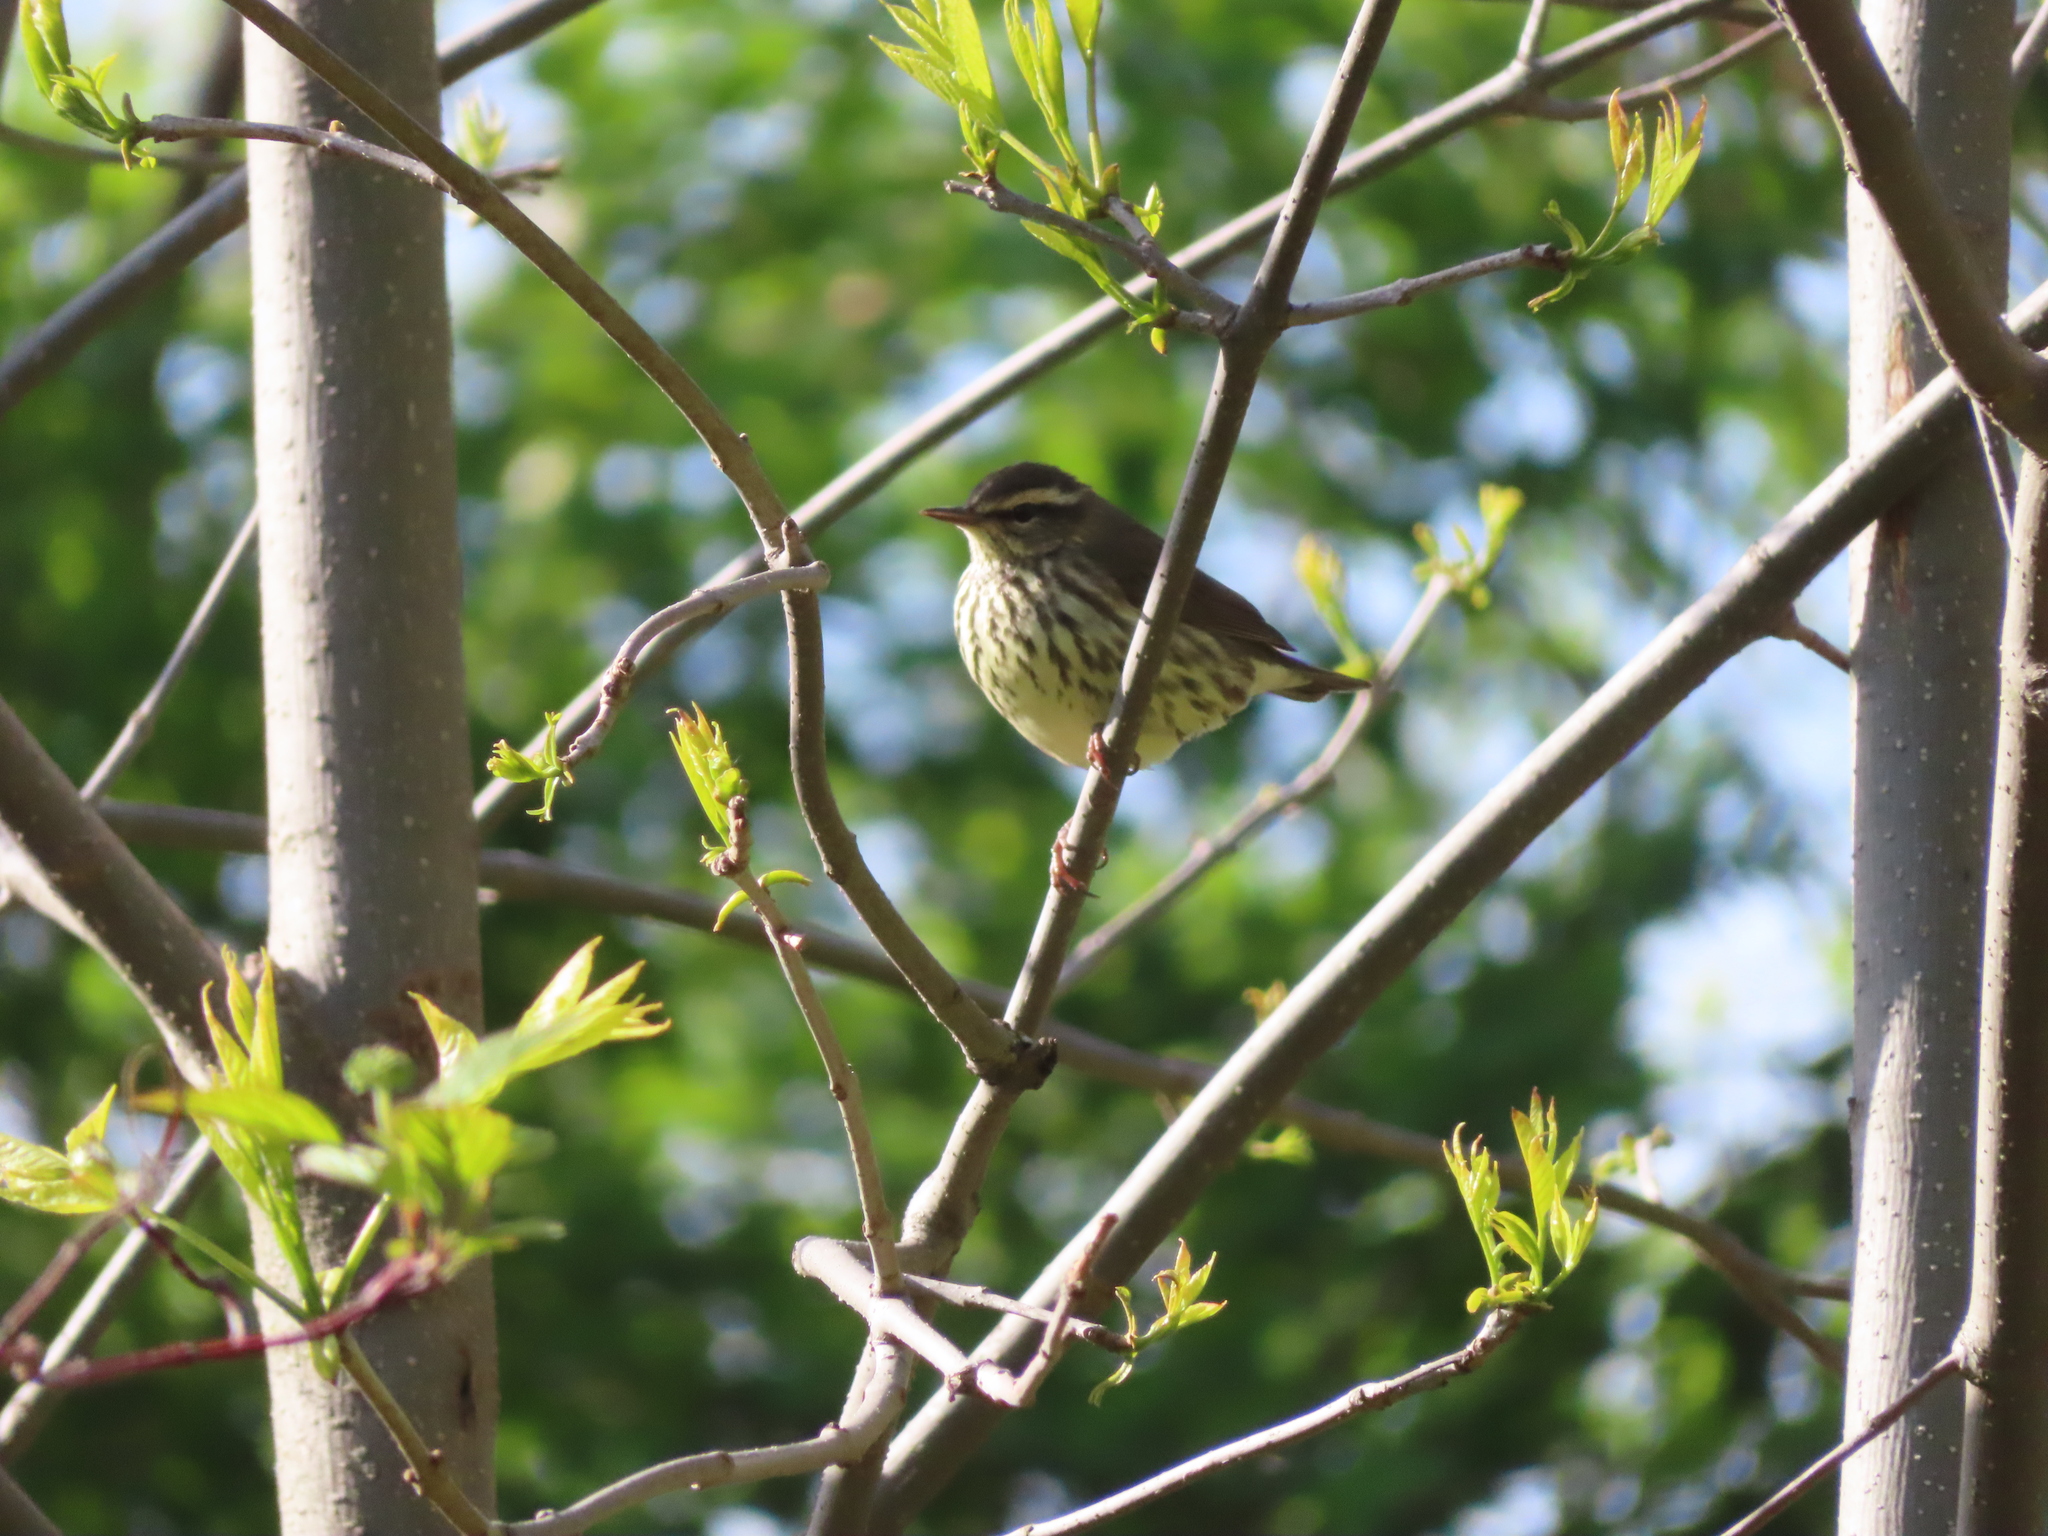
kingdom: Animalia
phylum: Chordata
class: Aves
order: Passeriformes
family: Parulidae
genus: Parkesia
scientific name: Parkesia noveboracensis
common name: Northern waterthrush
